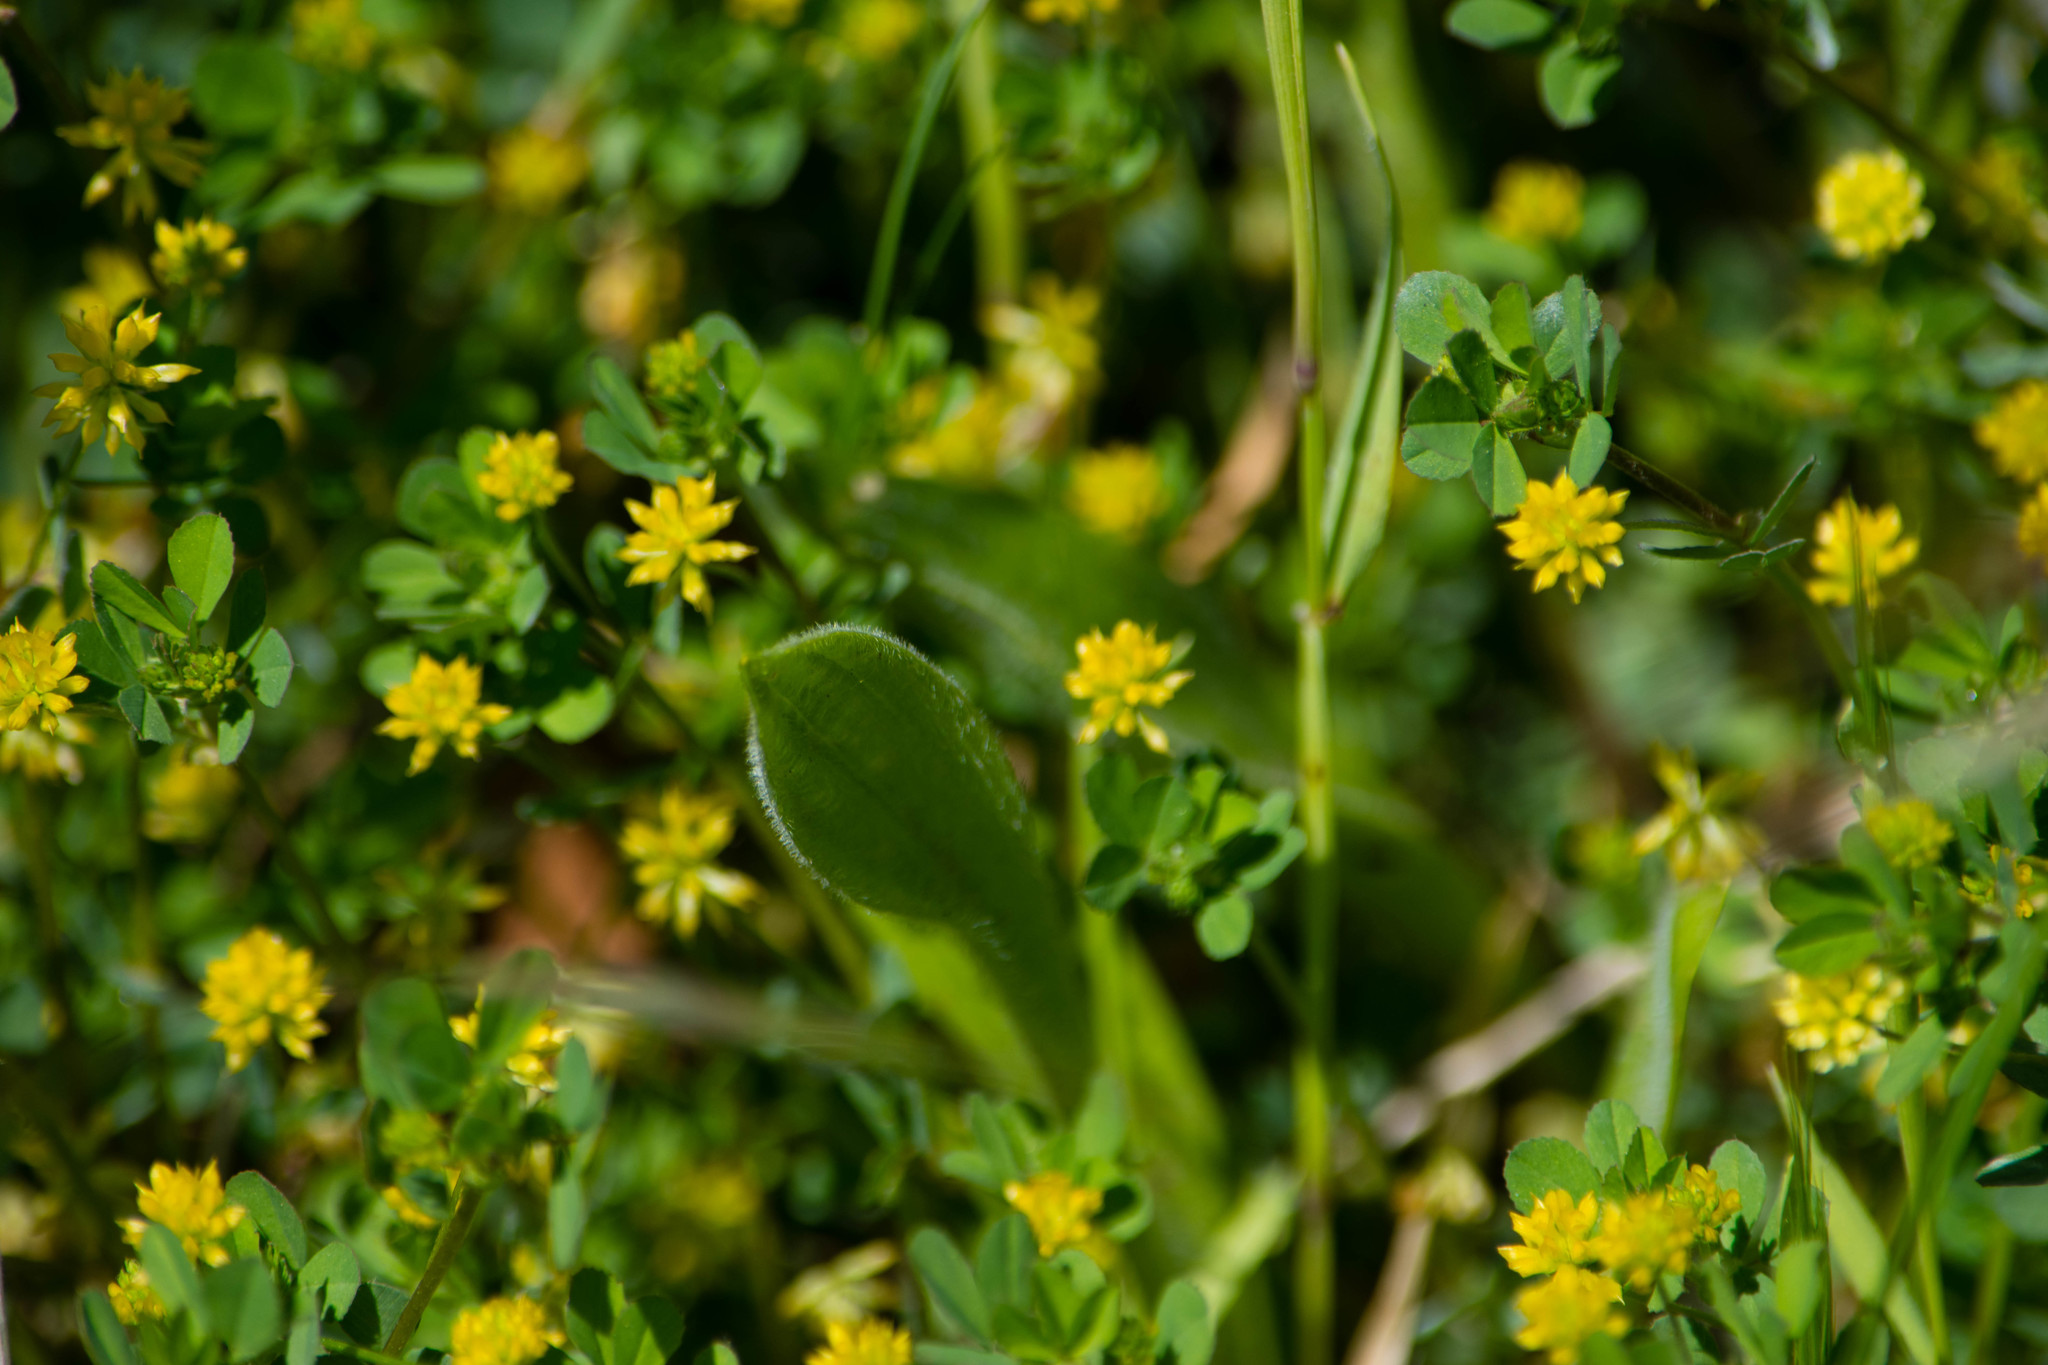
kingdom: Plantae
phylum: Tracheophyta
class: Magnoliopsida
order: Fabales
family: Fabaceae
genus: Trifolium
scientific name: Trifolium dubium
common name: Suckling clover
